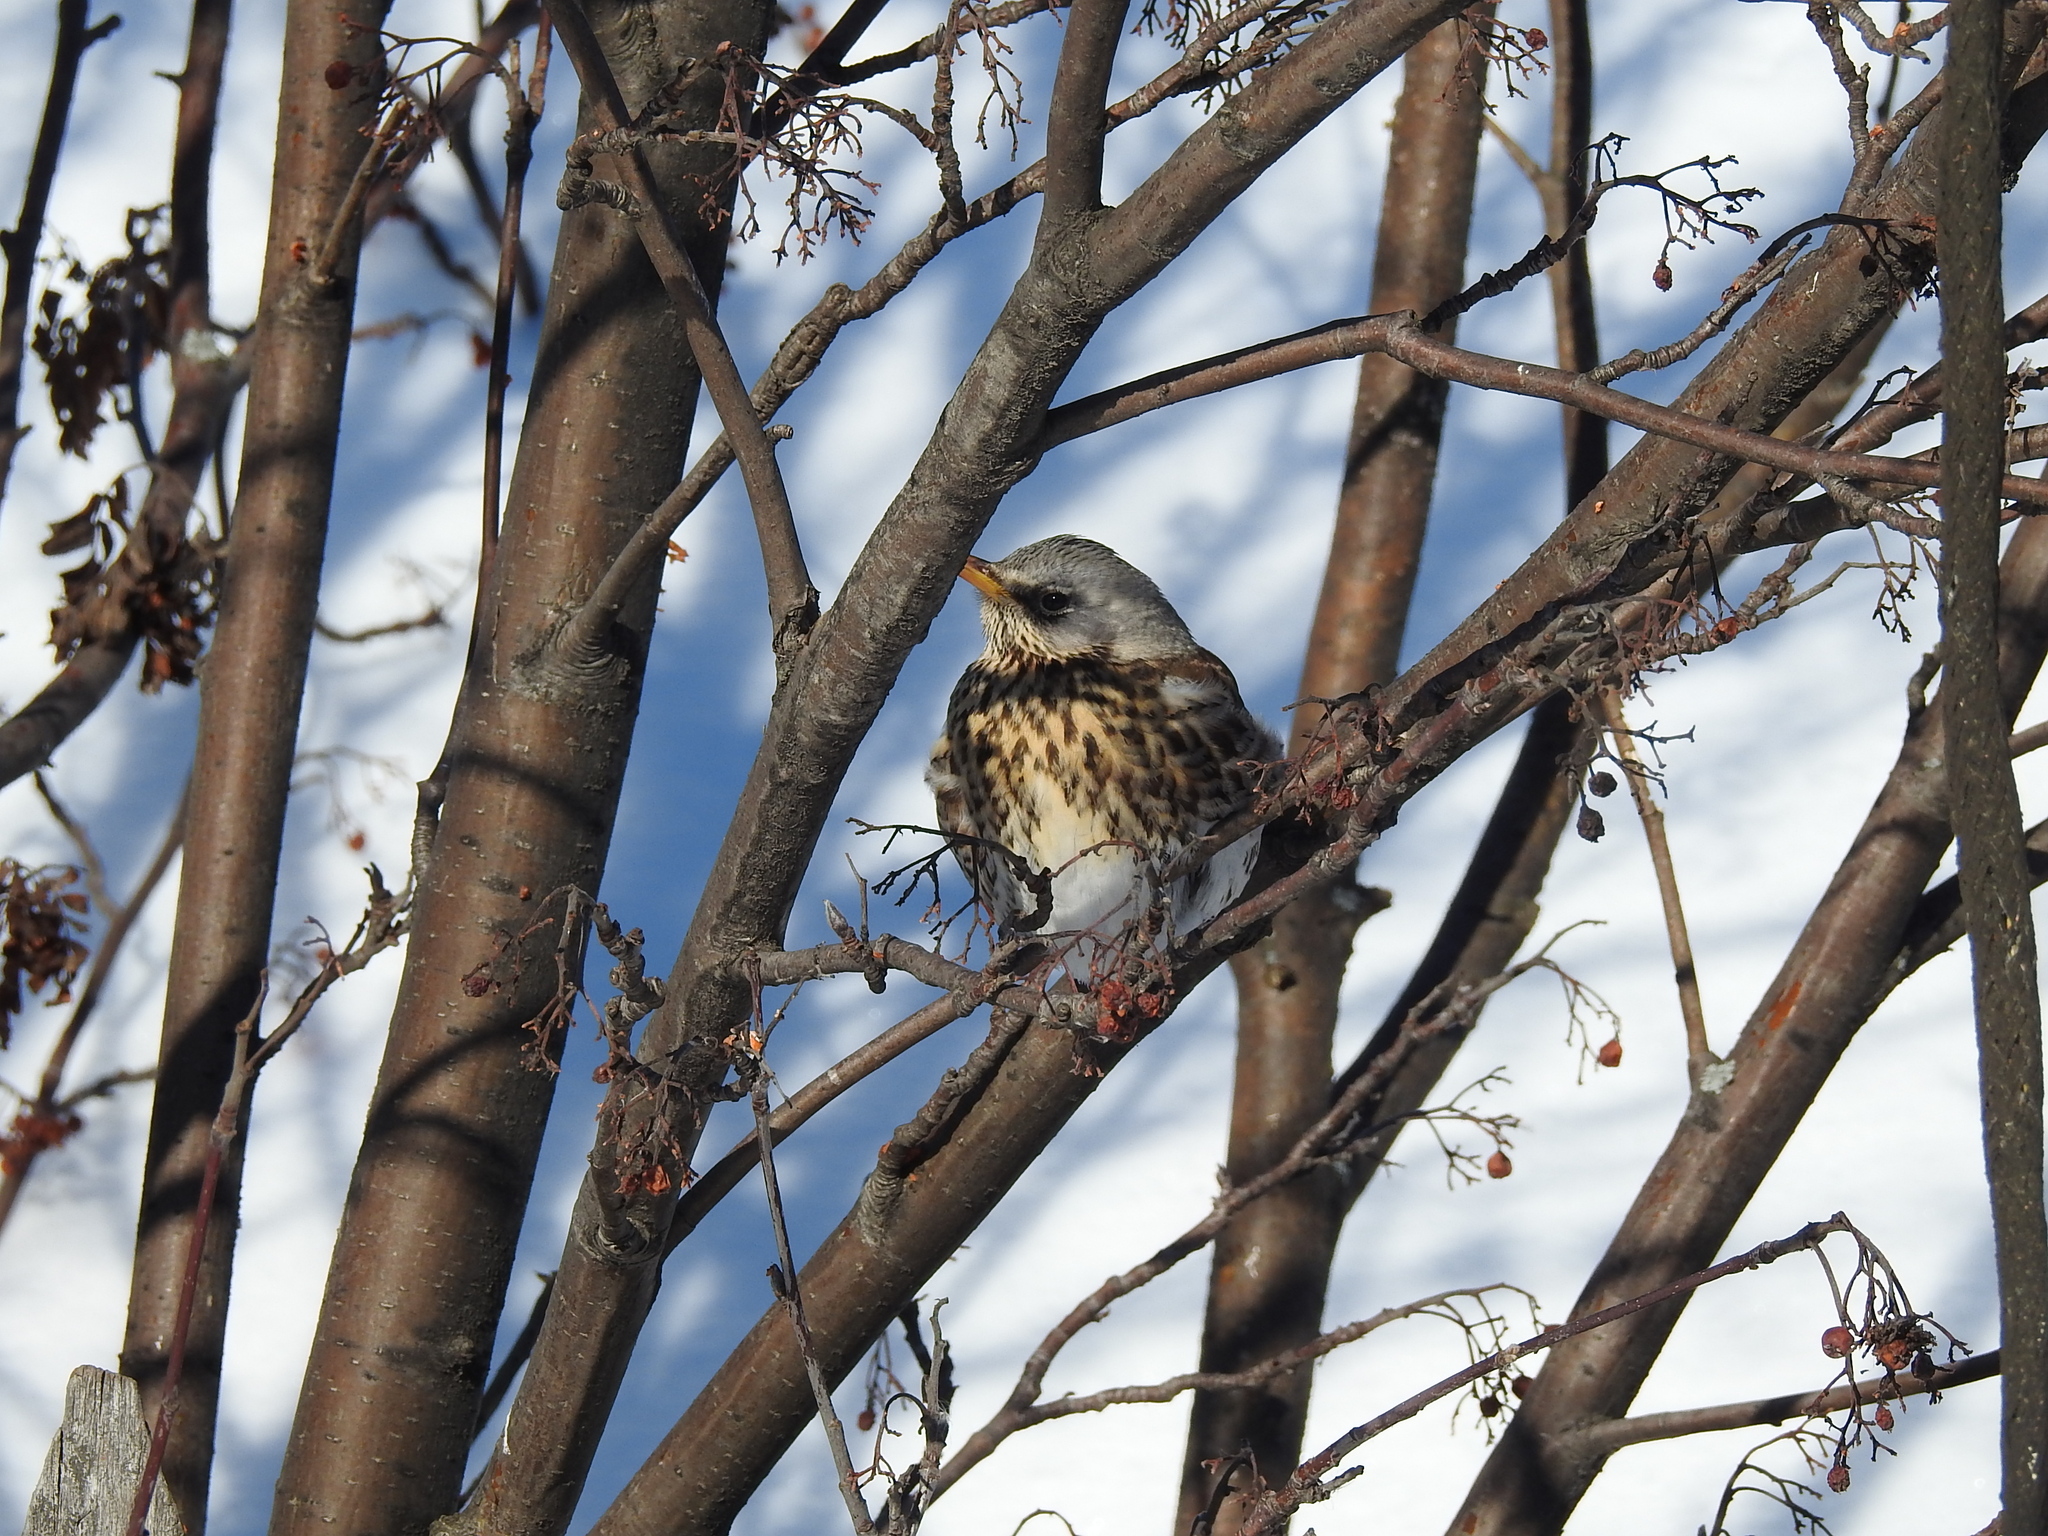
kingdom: Animalia
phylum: Chordata
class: Aves
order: Passeriformes
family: Turdidae
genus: Turdus
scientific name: Turdus pilaris
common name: Fieldfare
